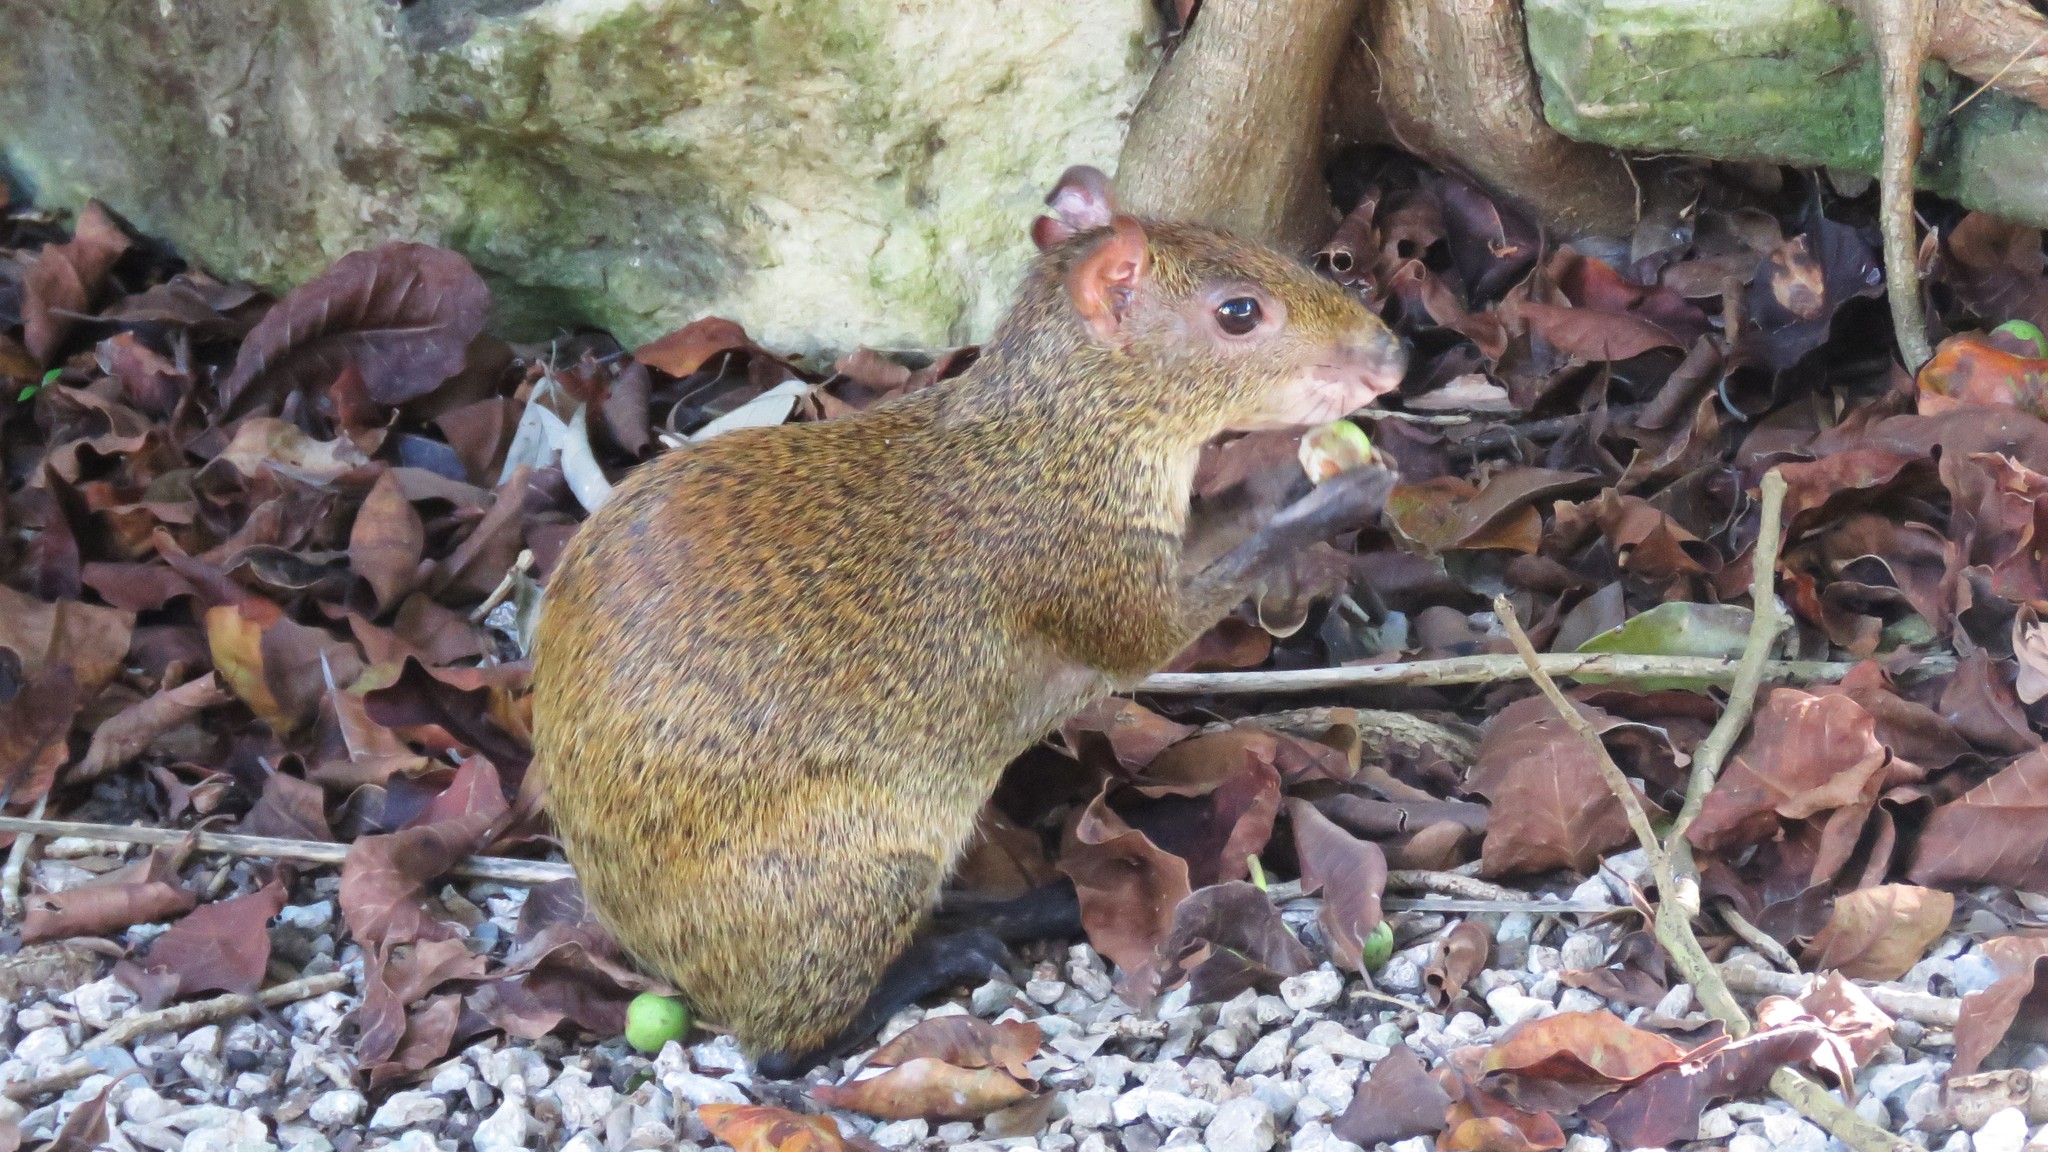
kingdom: Animalia
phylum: Chordata
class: Mammalia
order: Rodentia
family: Dasyproctidae
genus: Dasyprocta
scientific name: Dasyprocta punctata
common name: Central american agouti
